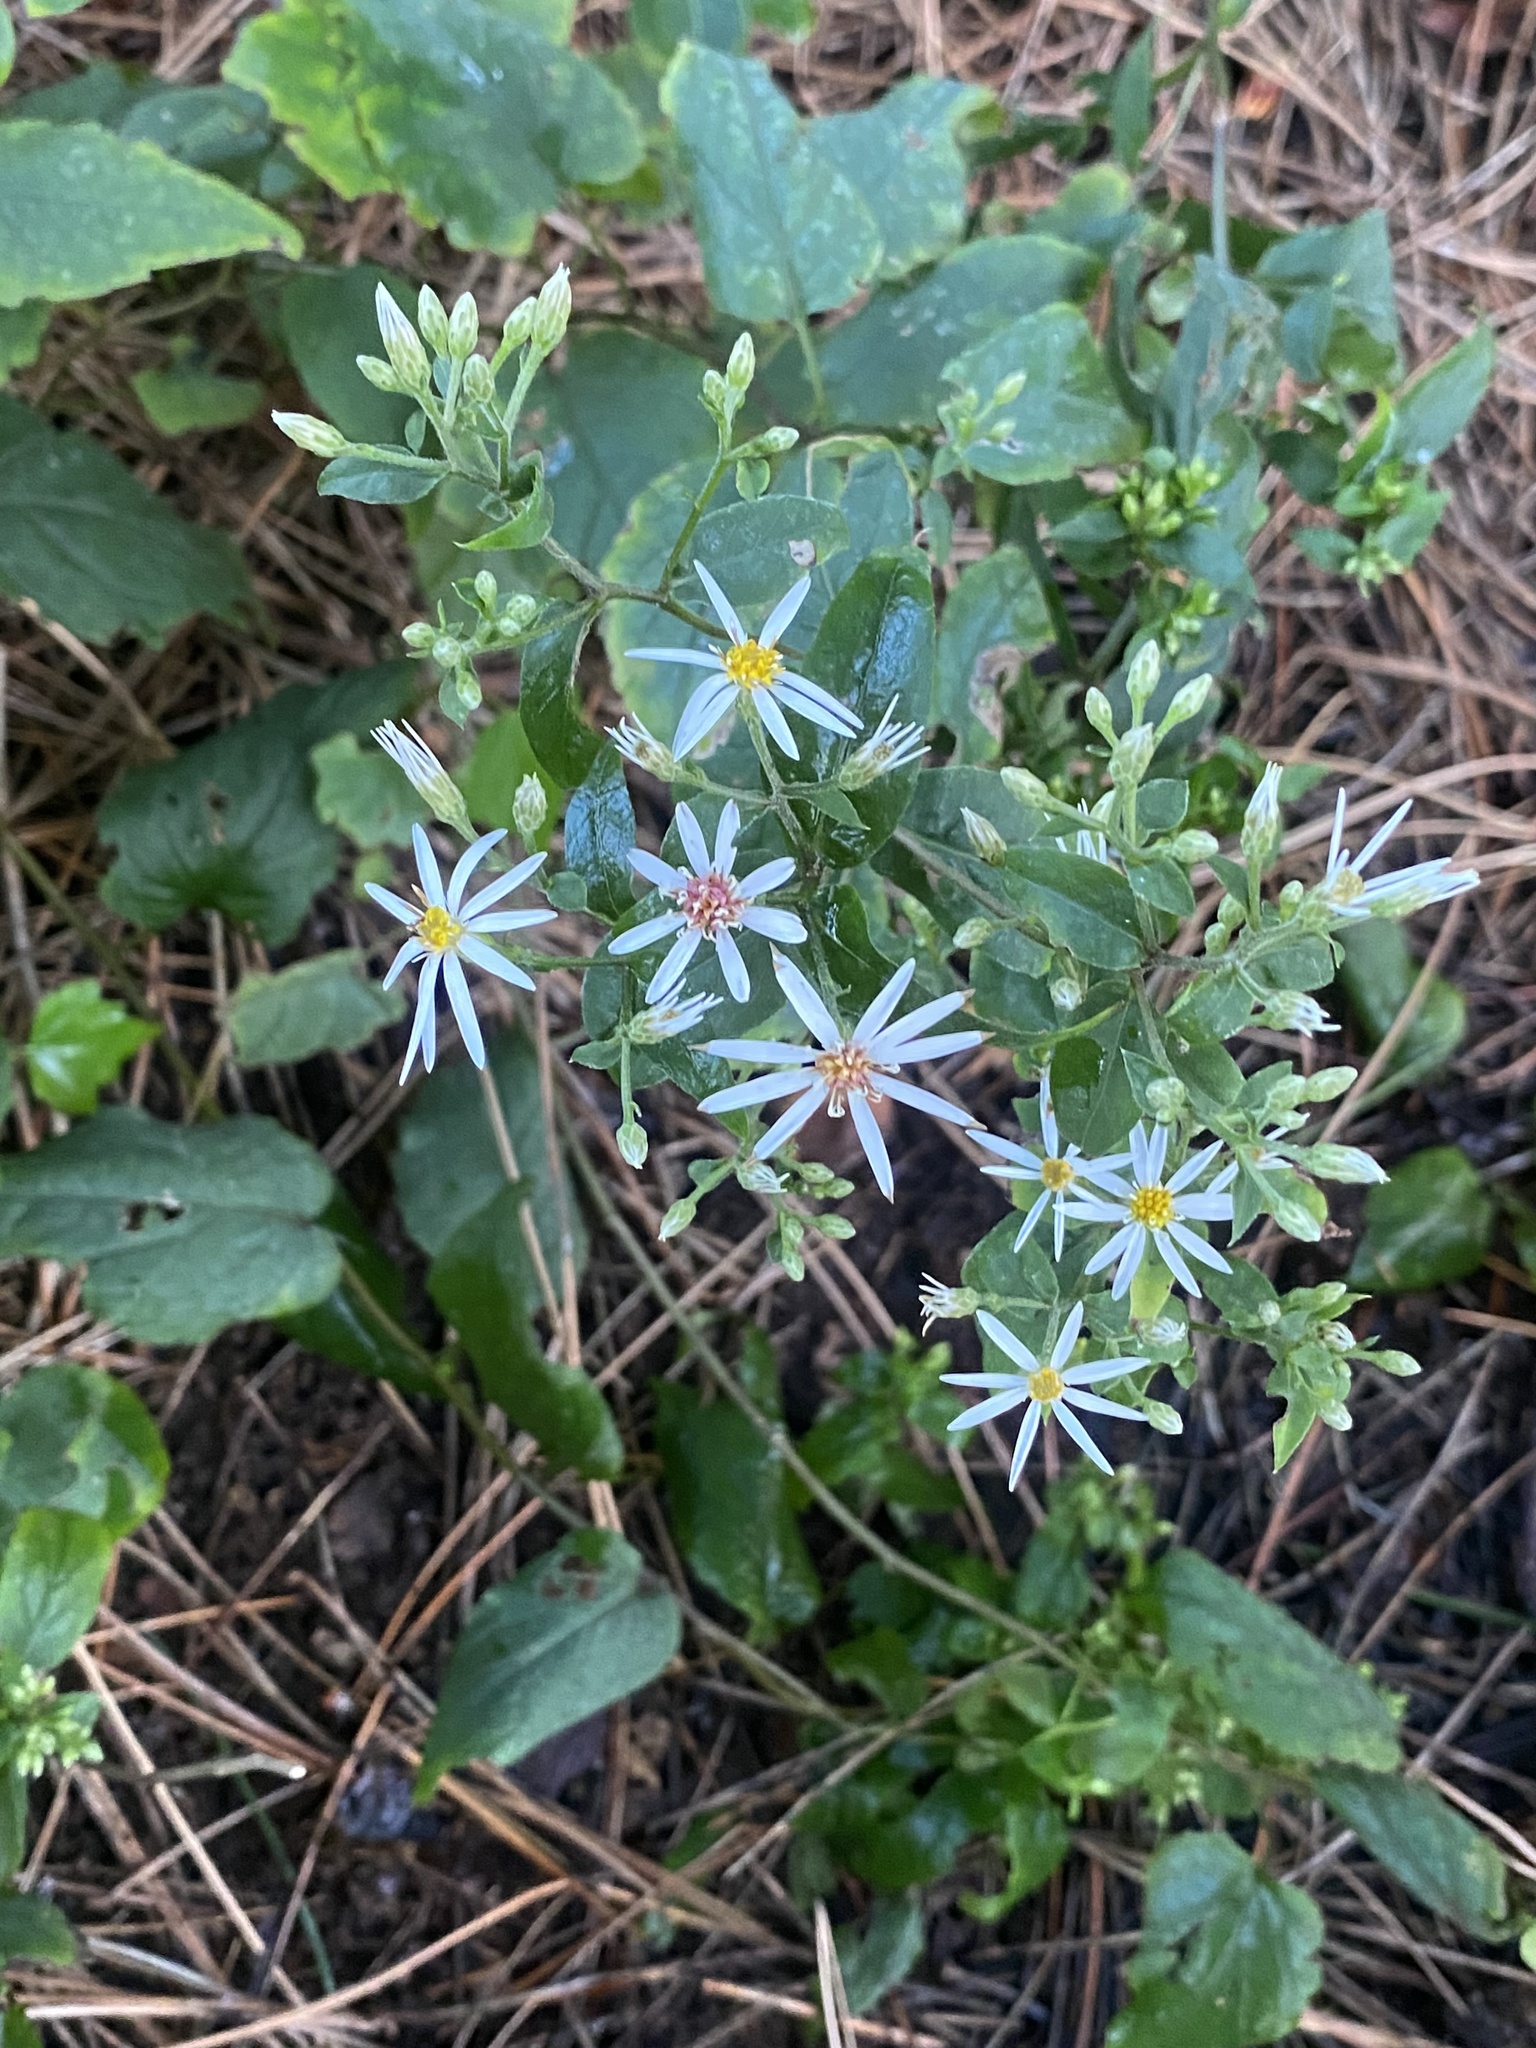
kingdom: Plantae
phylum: Tracheophyta
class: Magnoliopsida
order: Asterales
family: Asteraceae
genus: Eurybia
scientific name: Eurybia divaricata
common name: White wood aster
